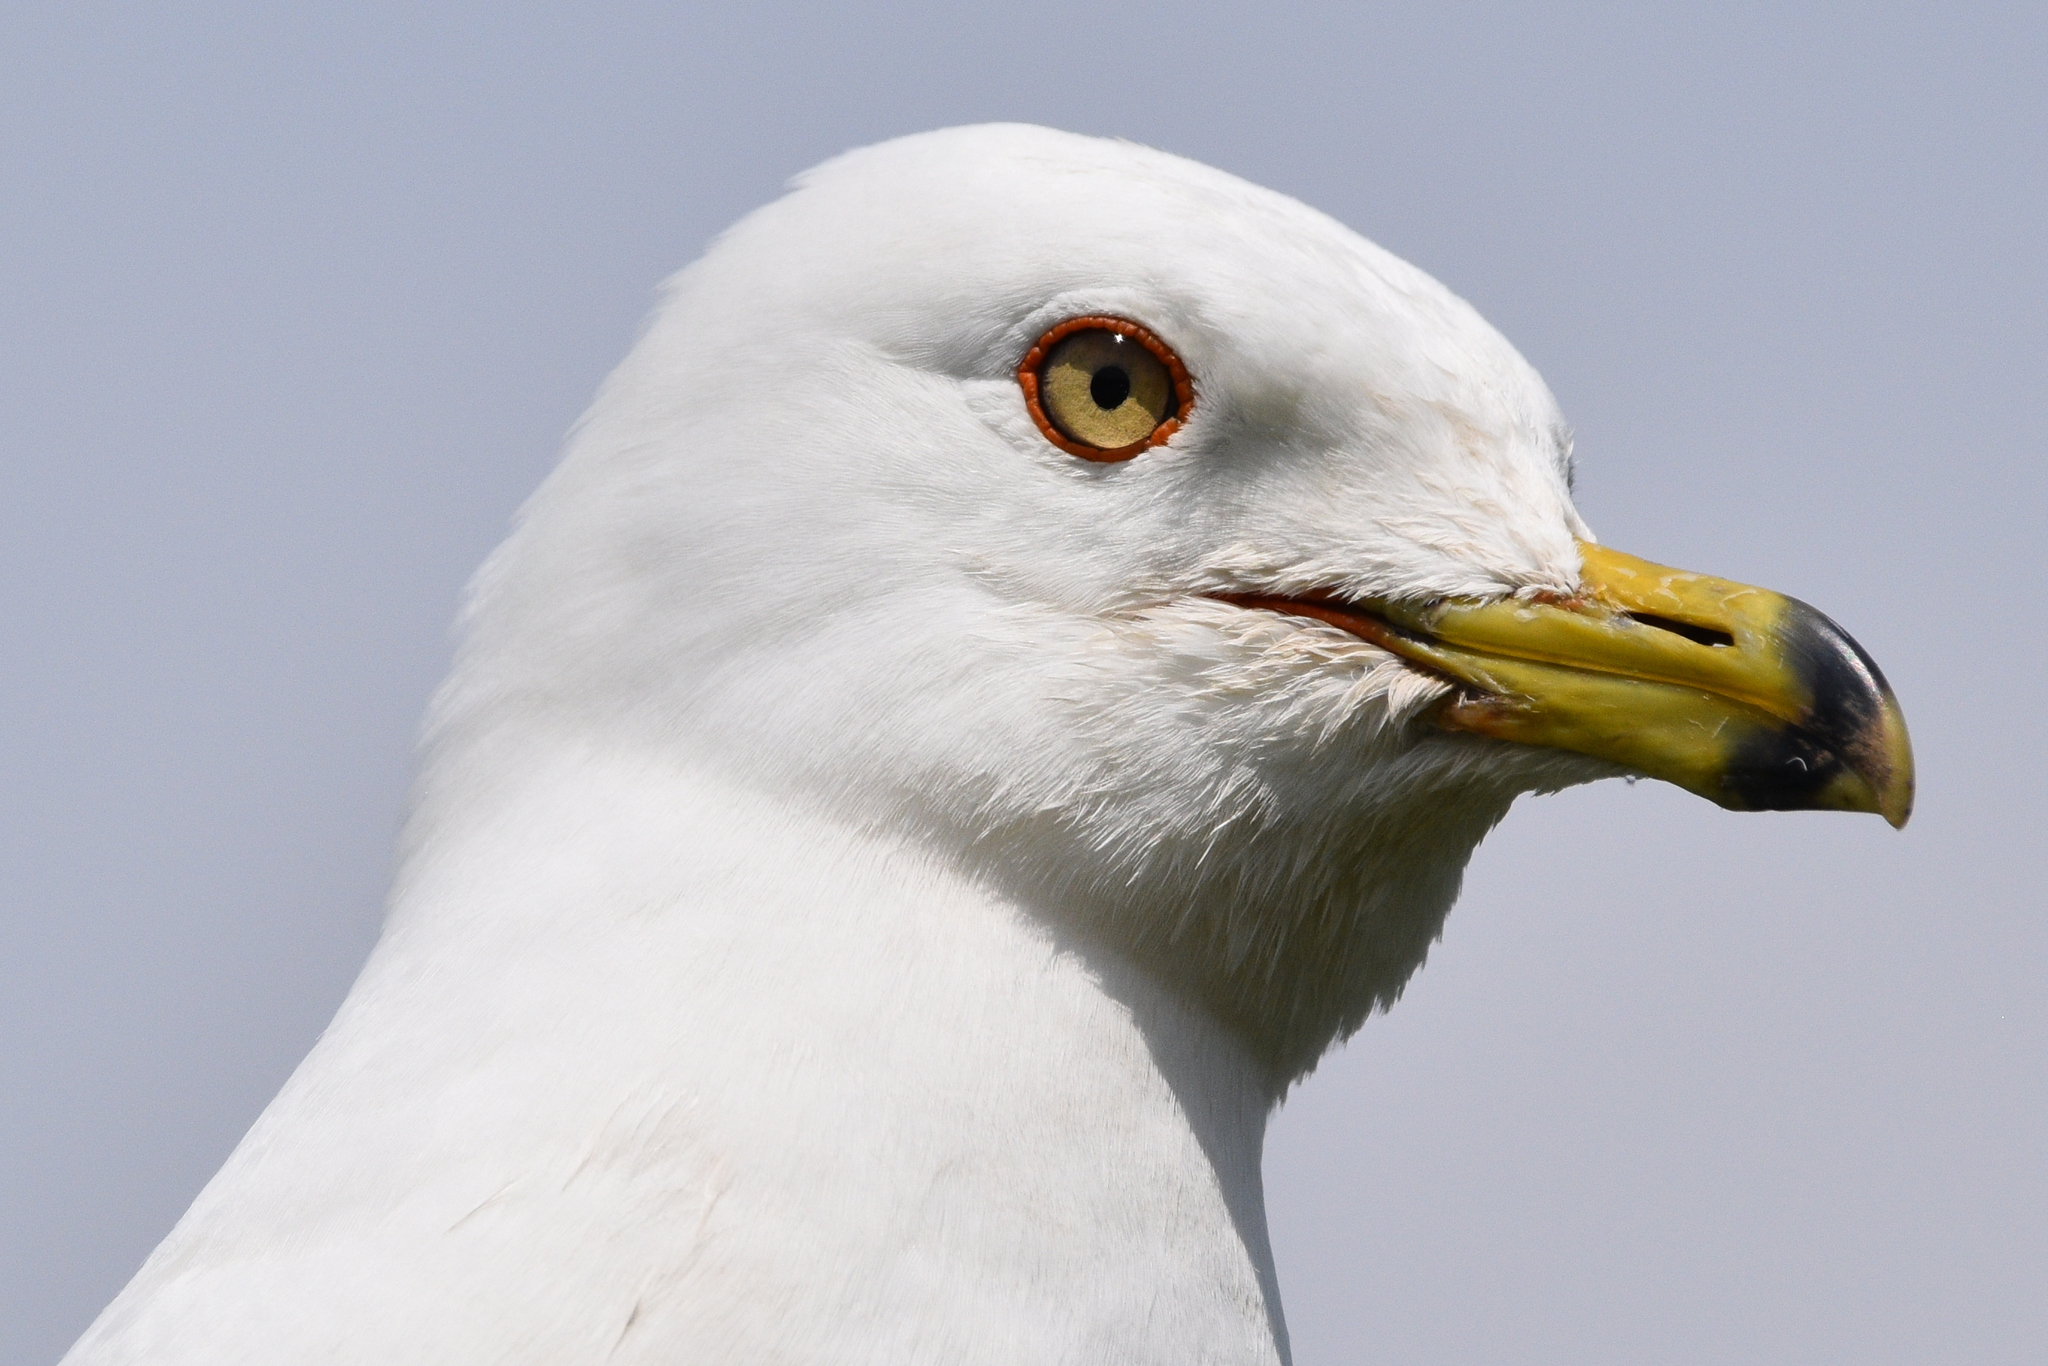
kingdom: Animalia
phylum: Chordata
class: Aves
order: Charadriiformes
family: Laridae
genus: Larus
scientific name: Larus delawarensis
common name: Ring-billed gull
